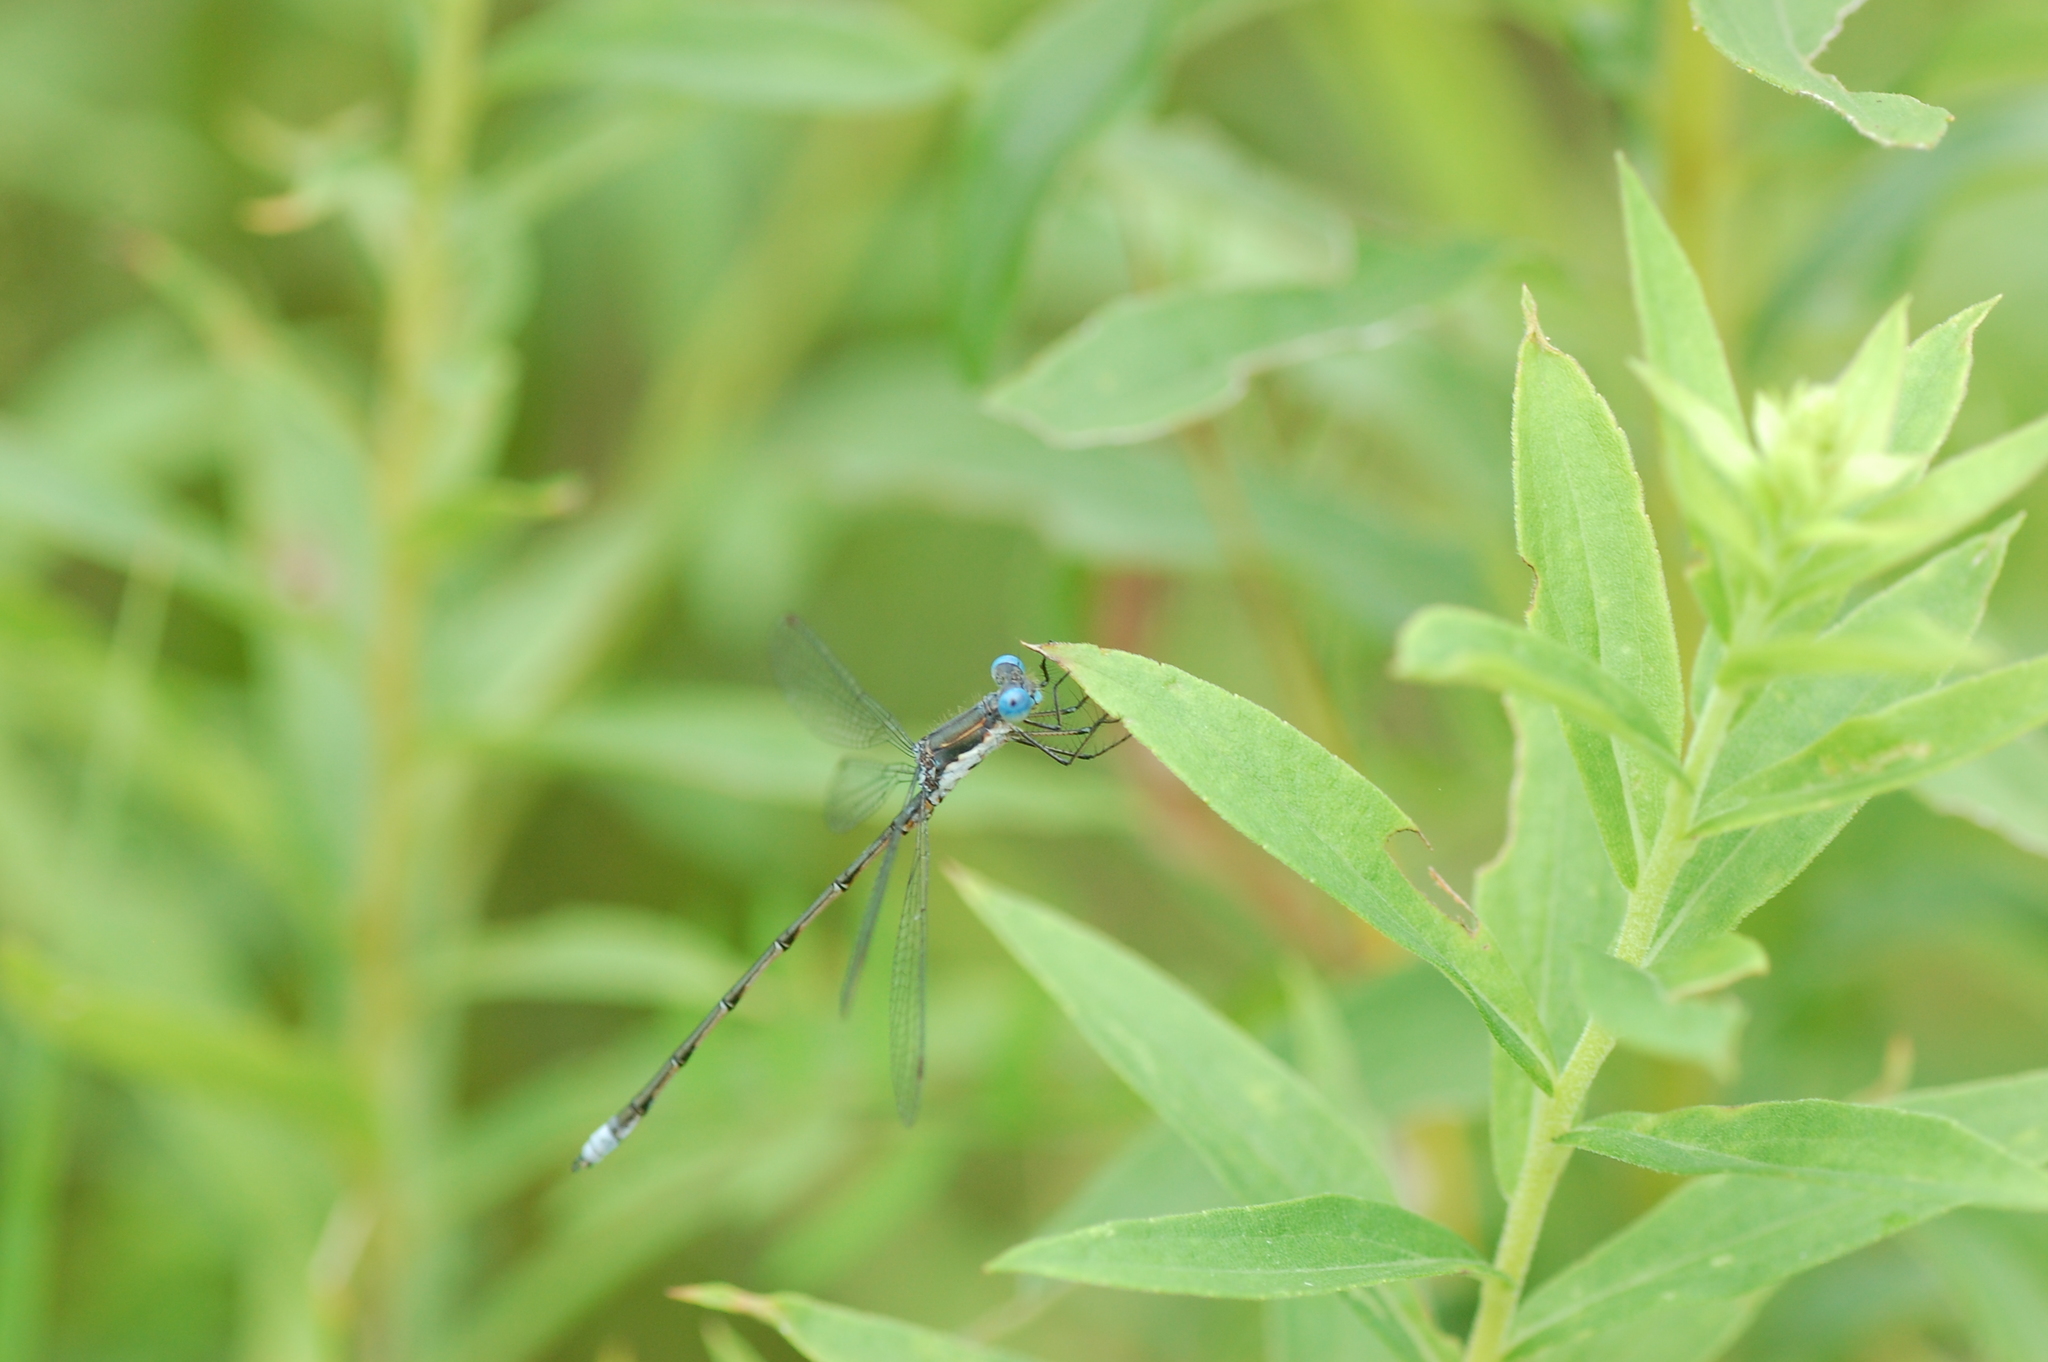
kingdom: Animalia
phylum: Arthropoda
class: Insecta
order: Odonata
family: Lestidae
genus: Lestes
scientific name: Lestes congener
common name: Spotted spreadwing
